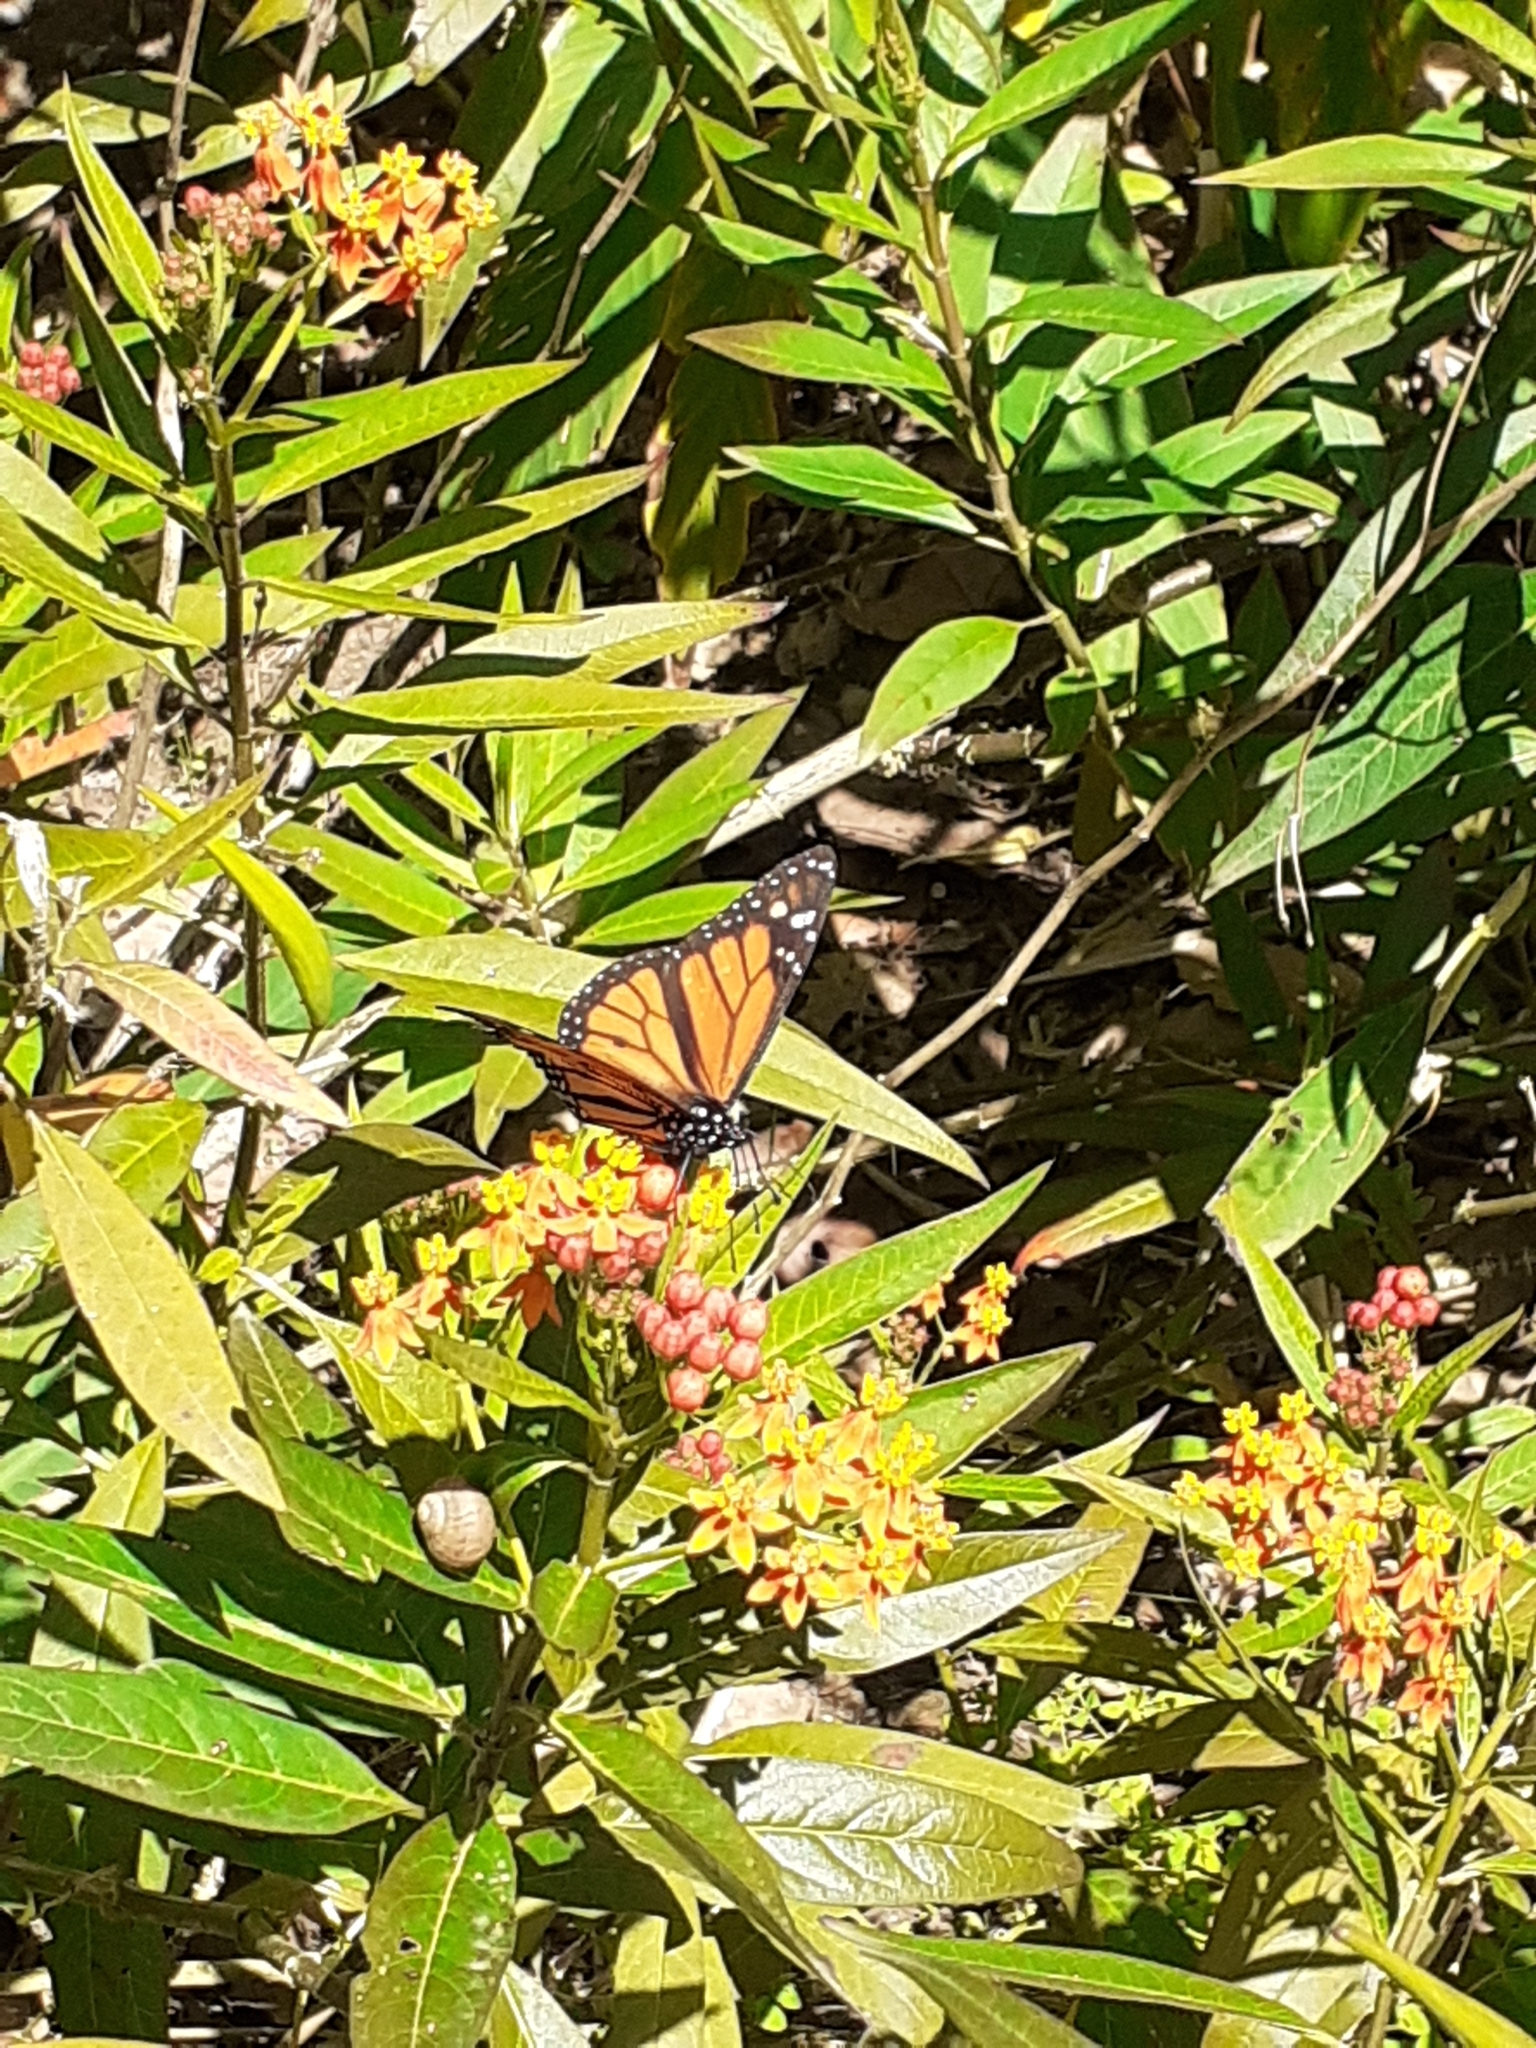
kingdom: Animalia
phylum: Arthropoda
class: Insecta
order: Lepidoptera
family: Nymphalidae
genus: Danaus
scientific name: Danaus plexippus
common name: Monarch
